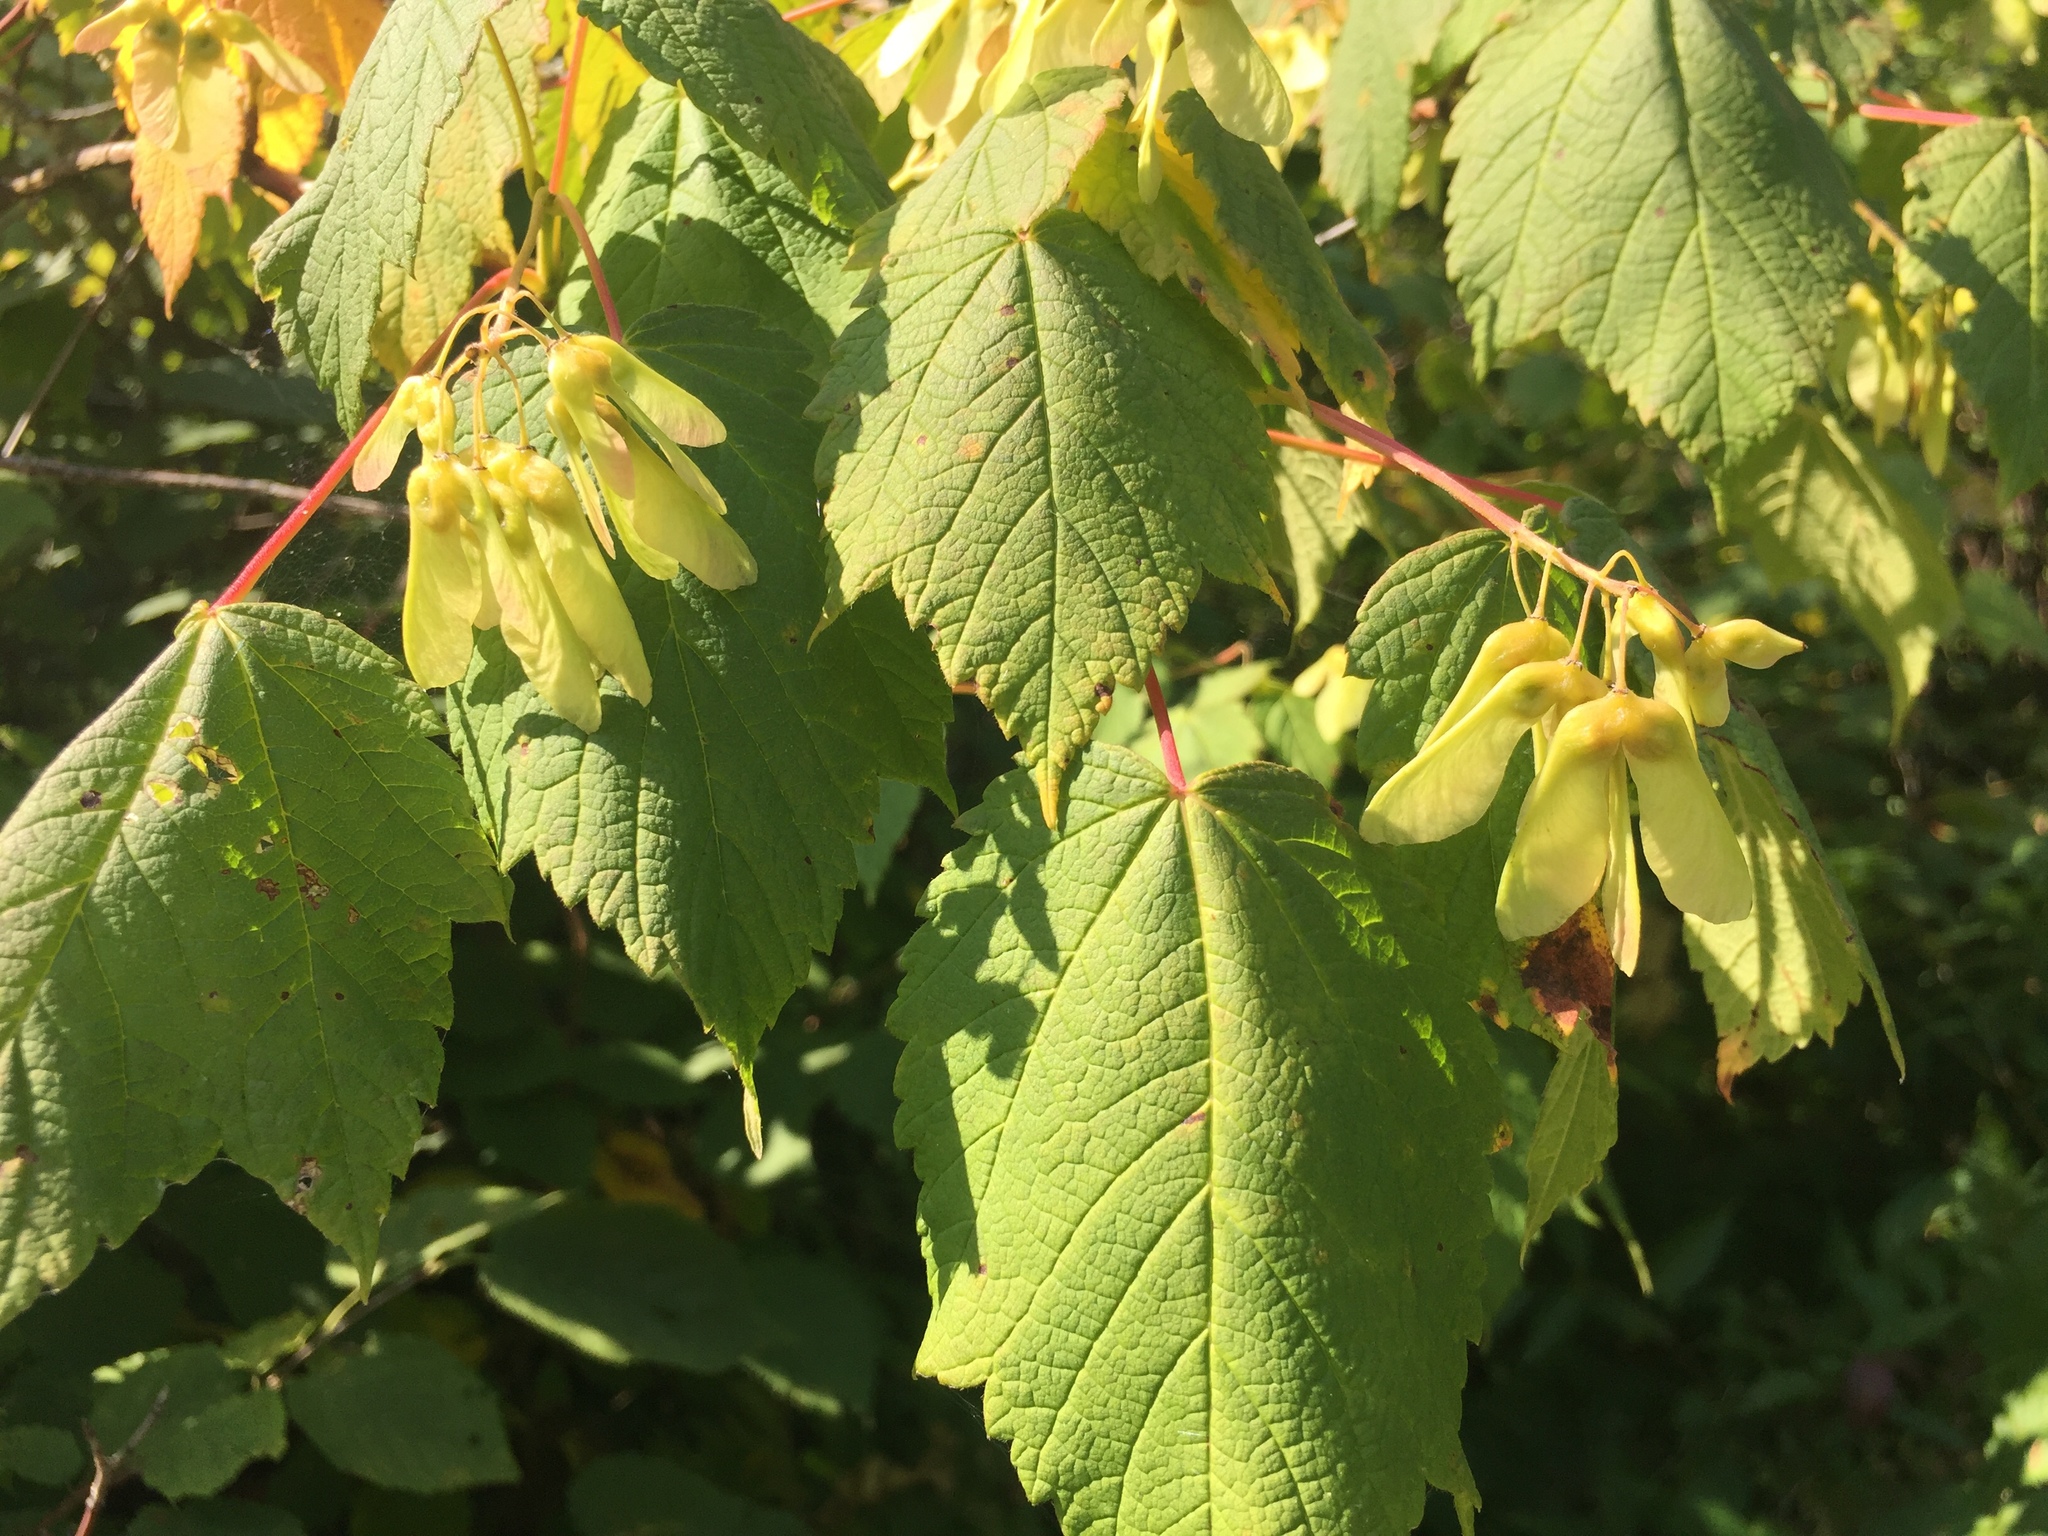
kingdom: Plantae
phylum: Tracheophyta
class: Magnoliopsida
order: Sapindales
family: Sapindaceae
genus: Acer
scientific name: Acer spicatum
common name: Mountain maple
